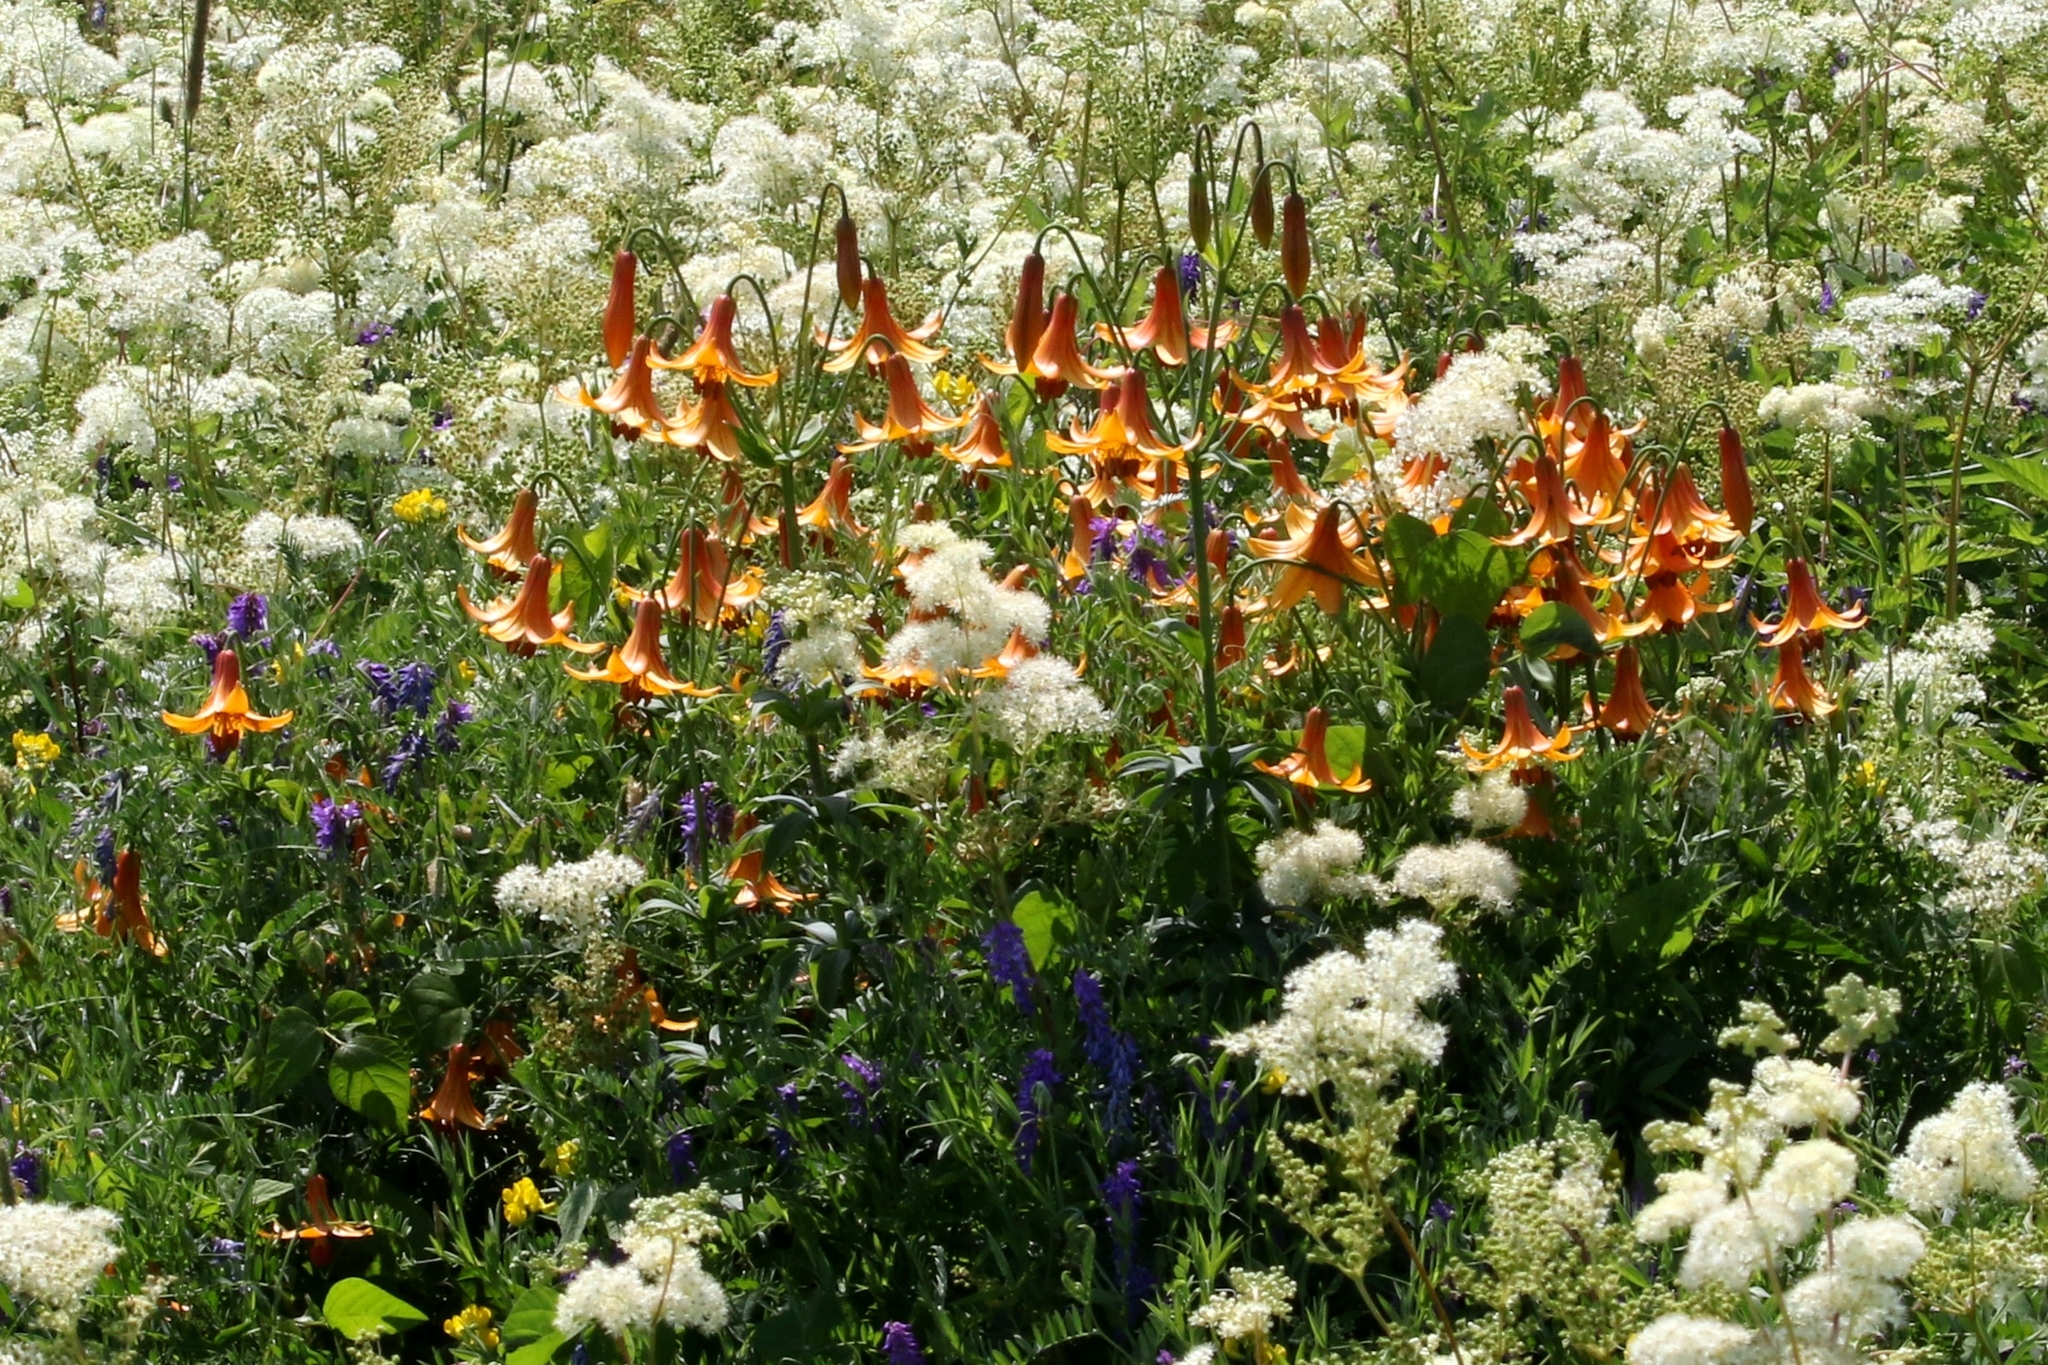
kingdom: Plantae
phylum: Tracheophyta
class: Liliopsida
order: Liliales
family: Liliaceae
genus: Lilium
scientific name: Lilium canadense
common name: Canada lily
